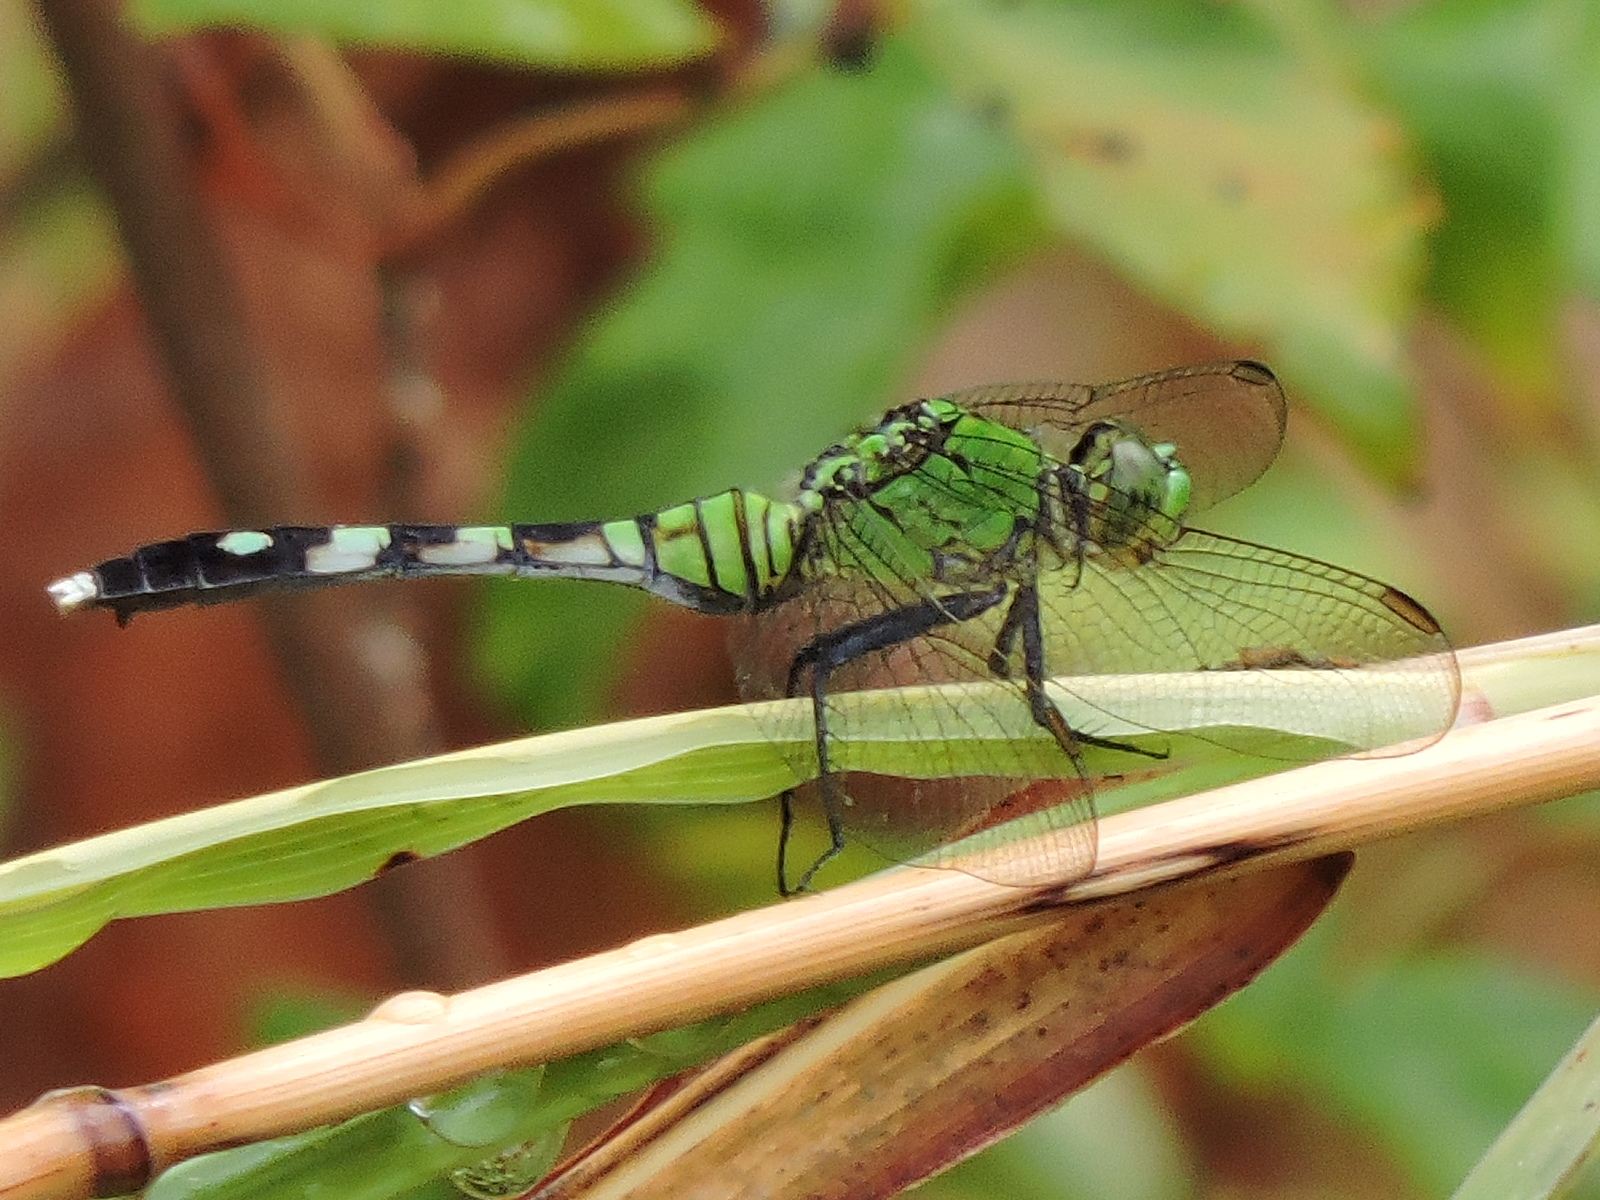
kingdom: Animalia
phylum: Arthropoda
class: Insecta
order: Odonata
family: Libellulidae
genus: Erythemis
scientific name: Erythemis simplicicollis
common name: Eastern pondhawk
